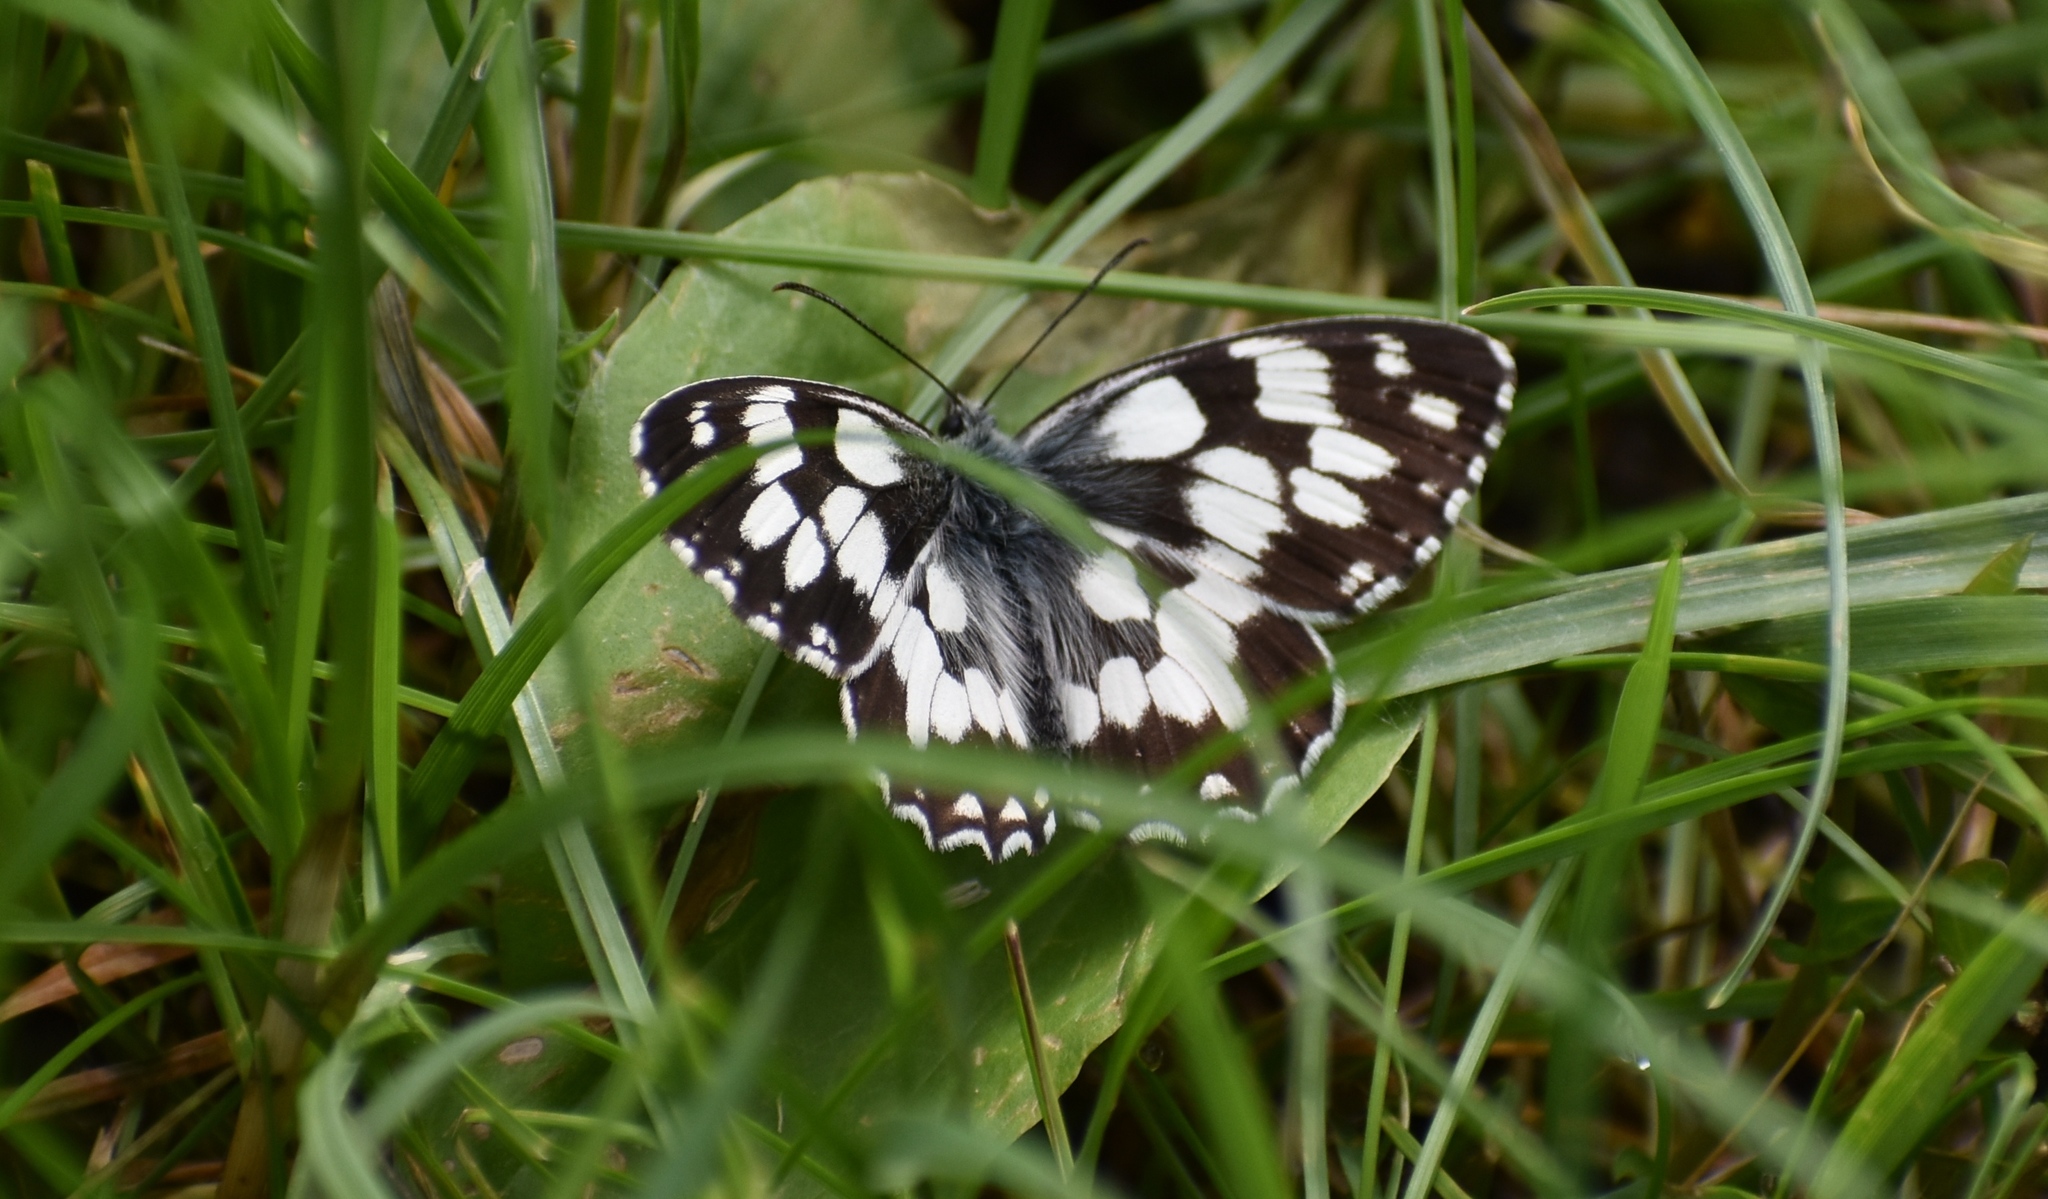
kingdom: Animalia
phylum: Arthropoda
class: Insecta
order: Lepidoptera
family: Nymphalidae
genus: Melanargia
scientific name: Melanargia galathea
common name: Marbled white
